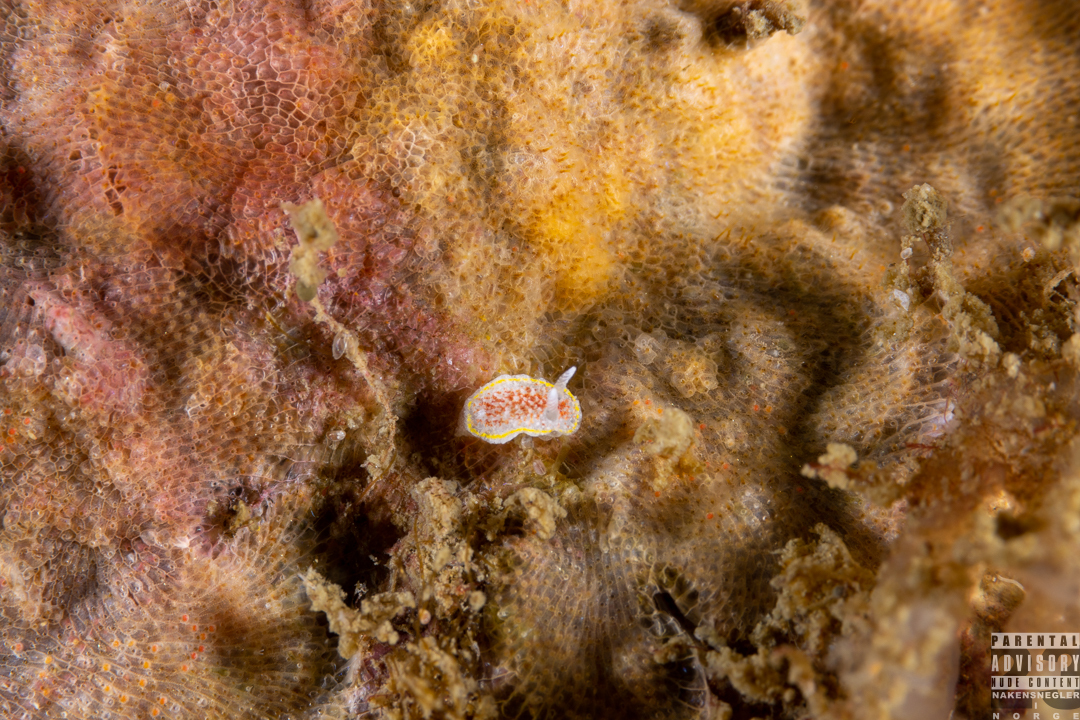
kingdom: Animalia
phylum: Mollusca
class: Gastropoda
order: Nudibranchia
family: Calycidorididae
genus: Diaphorodoris
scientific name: Diaphorodoris luteocincta
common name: Fried egg nudibranch
